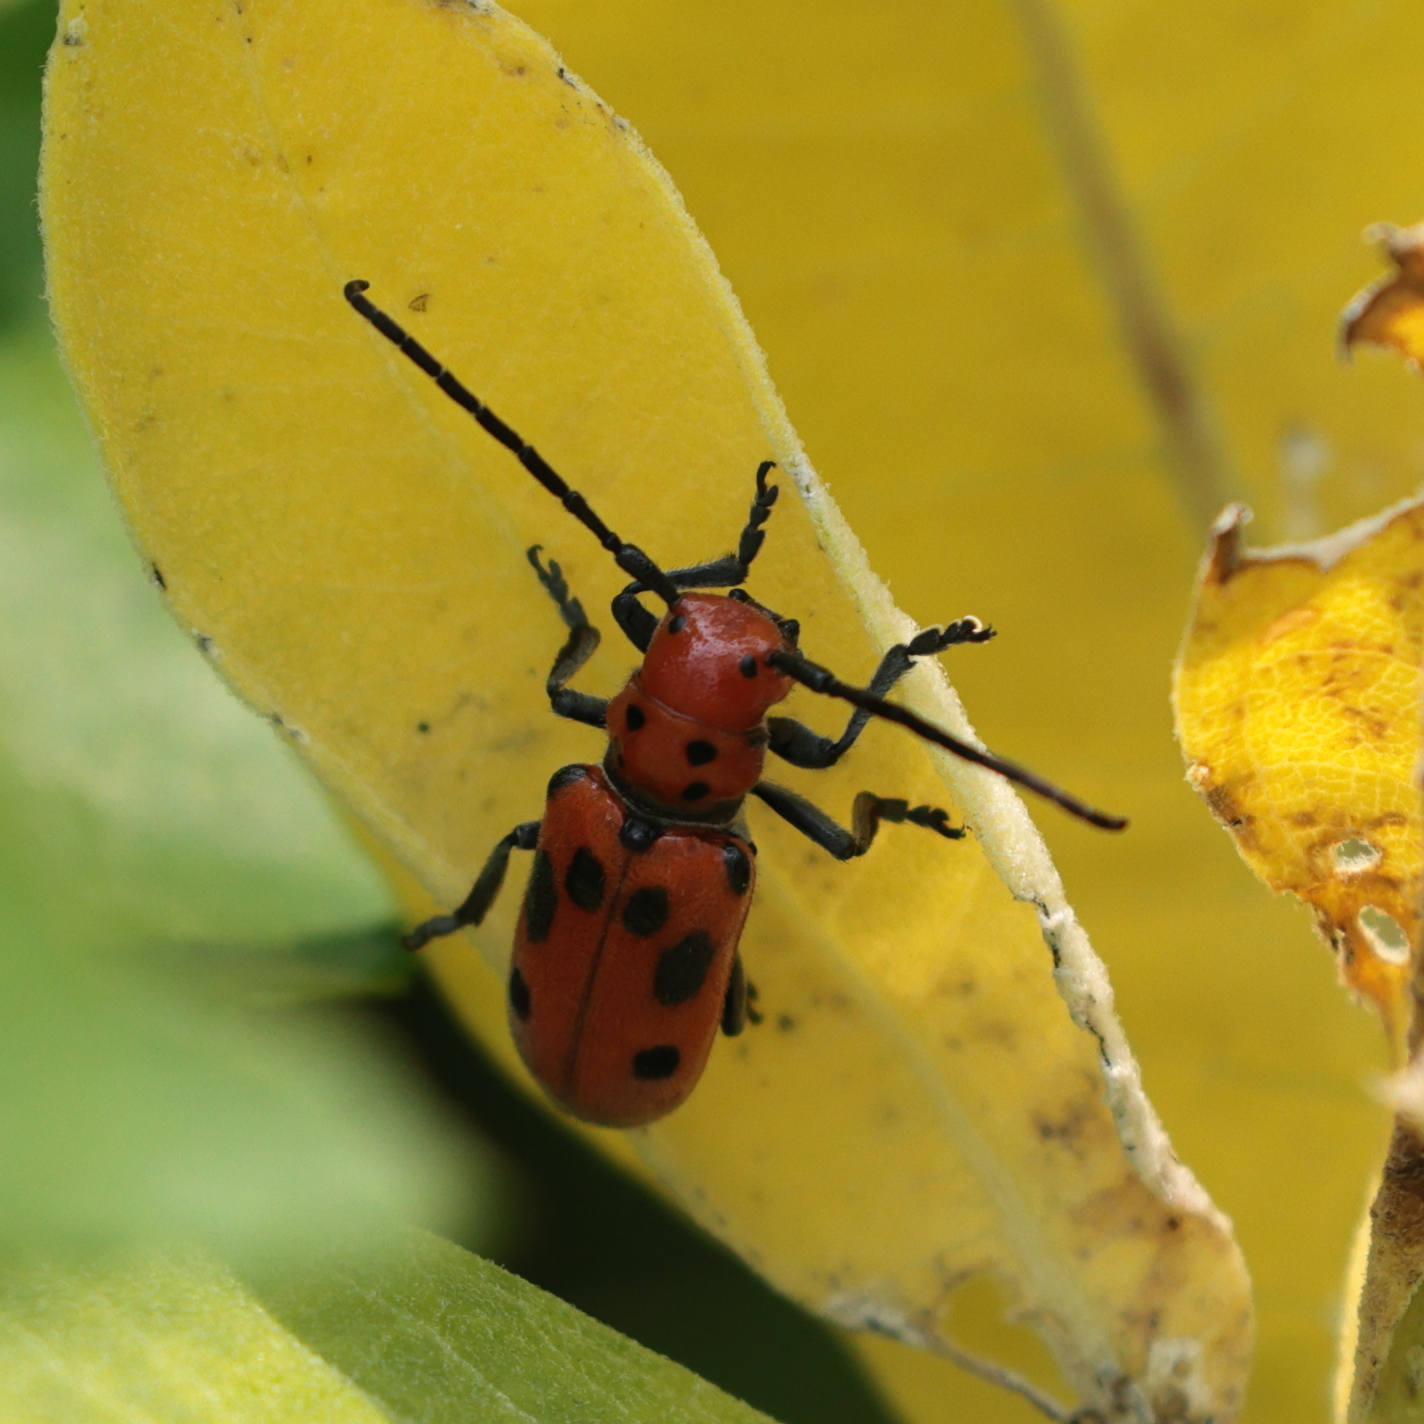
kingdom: Animalia
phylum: Arthropoda
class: Insecta
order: Coleoptera
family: Cerambycidae
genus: Tetraopes
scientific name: Tetraopes tetrophthalmus
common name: Red milkweed beetle
